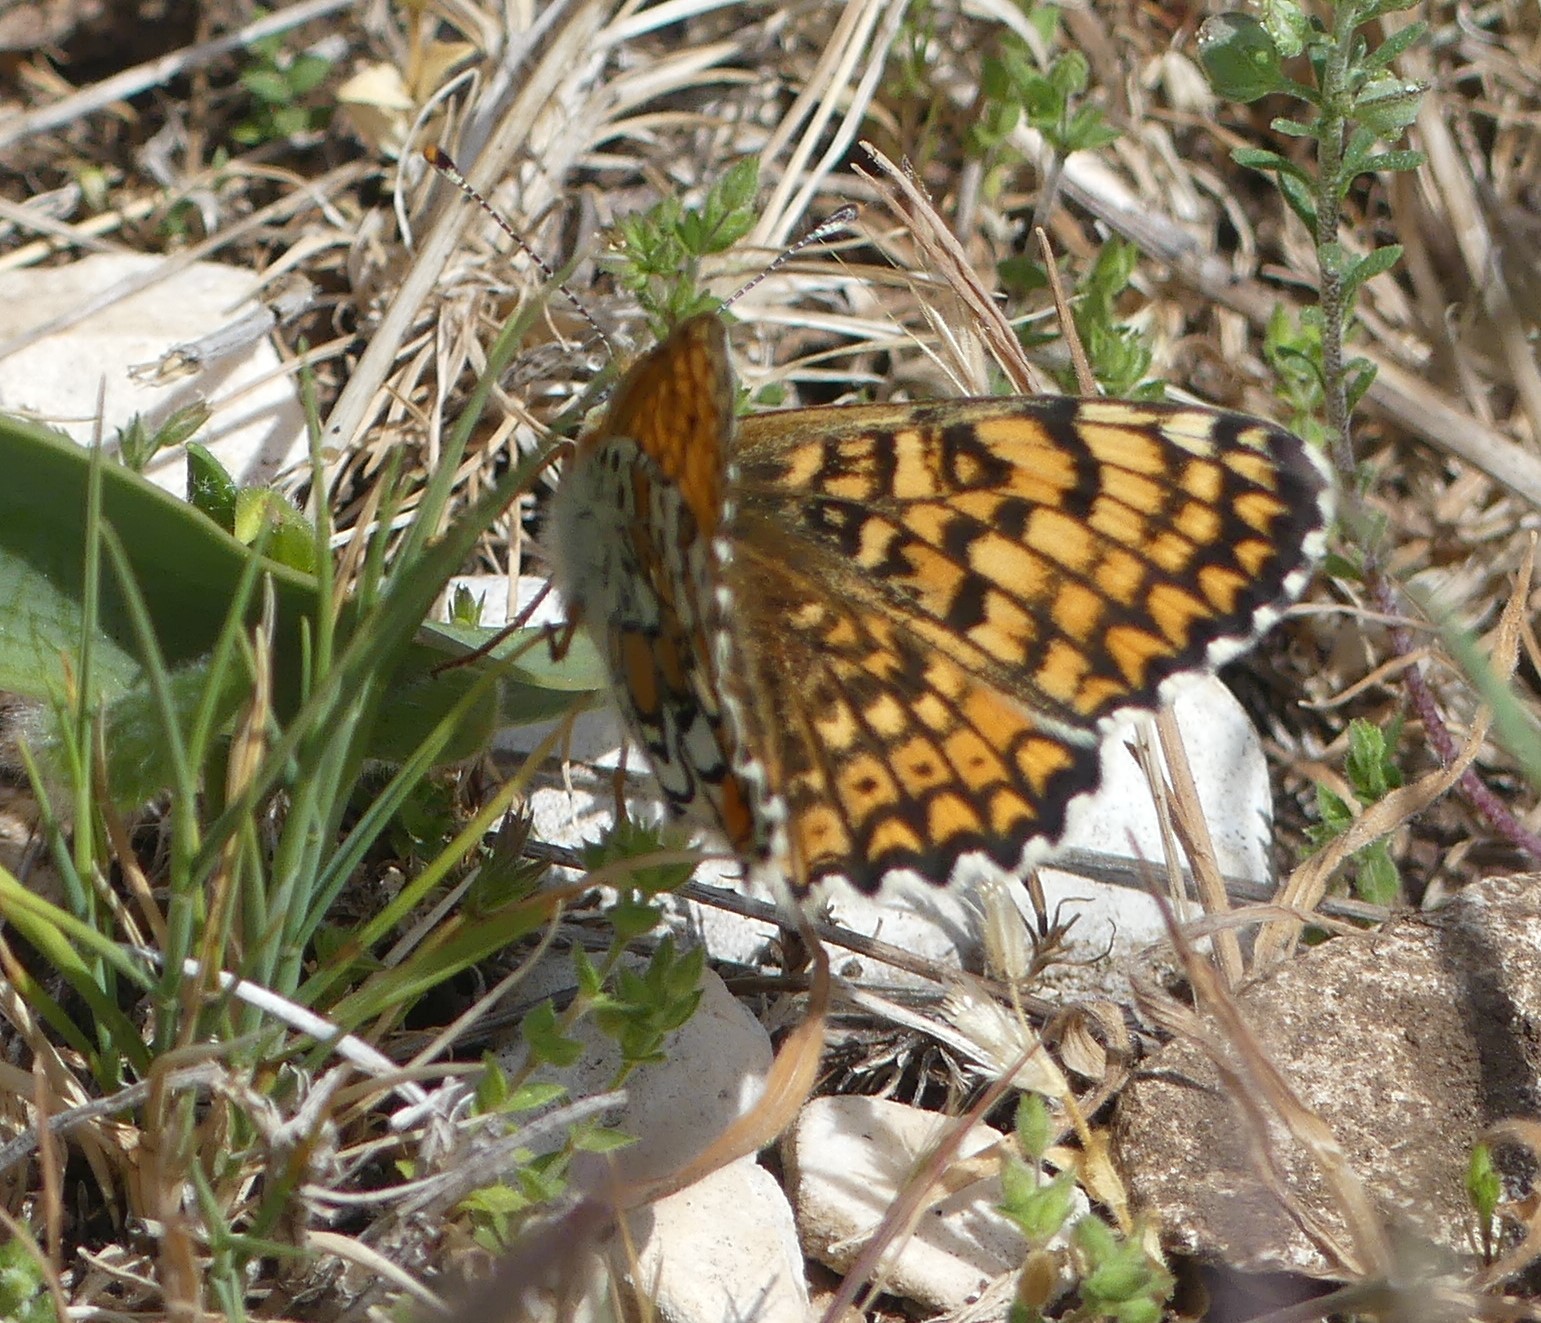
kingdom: Animalia
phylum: Arthropoda
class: Insecta
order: Lepidoptera
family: Nymphalidae
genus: Melitaea
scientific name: Melitaea cinxia
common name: Glanville fritillary
